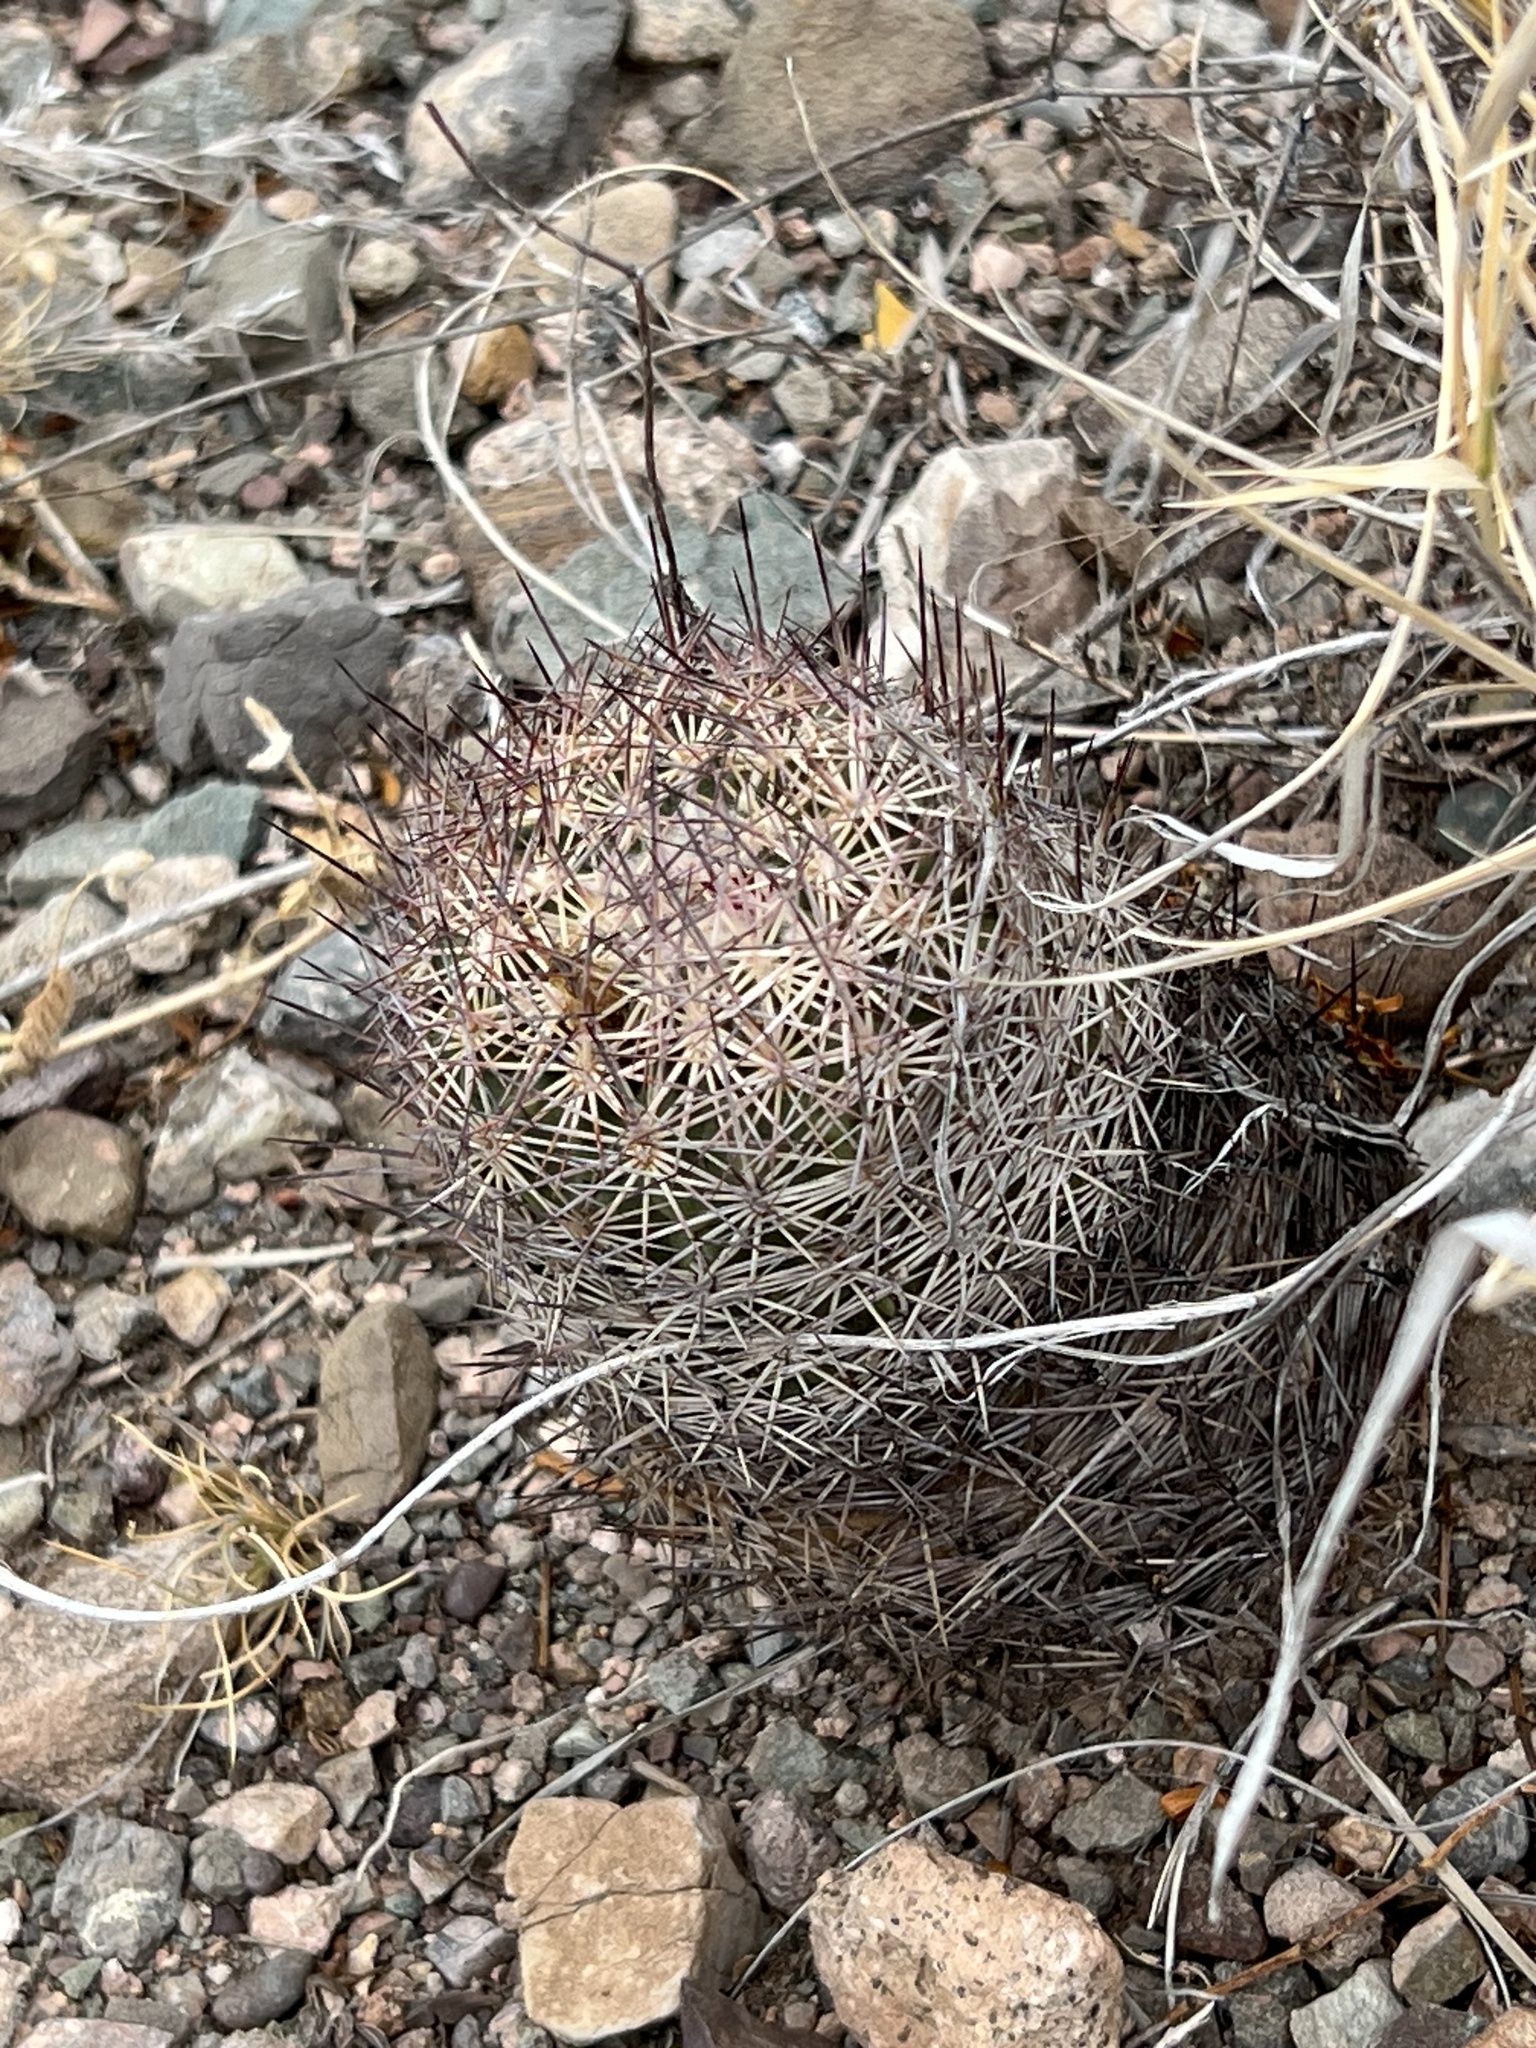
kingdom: Plantae
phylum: Tracheophyta
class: Magnoliopsida
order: Caryophyllales
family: Cactaceae
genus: Sclerocactus
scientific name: Sclerocactus johnsonii
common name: Eight-spine fishhook cactus
